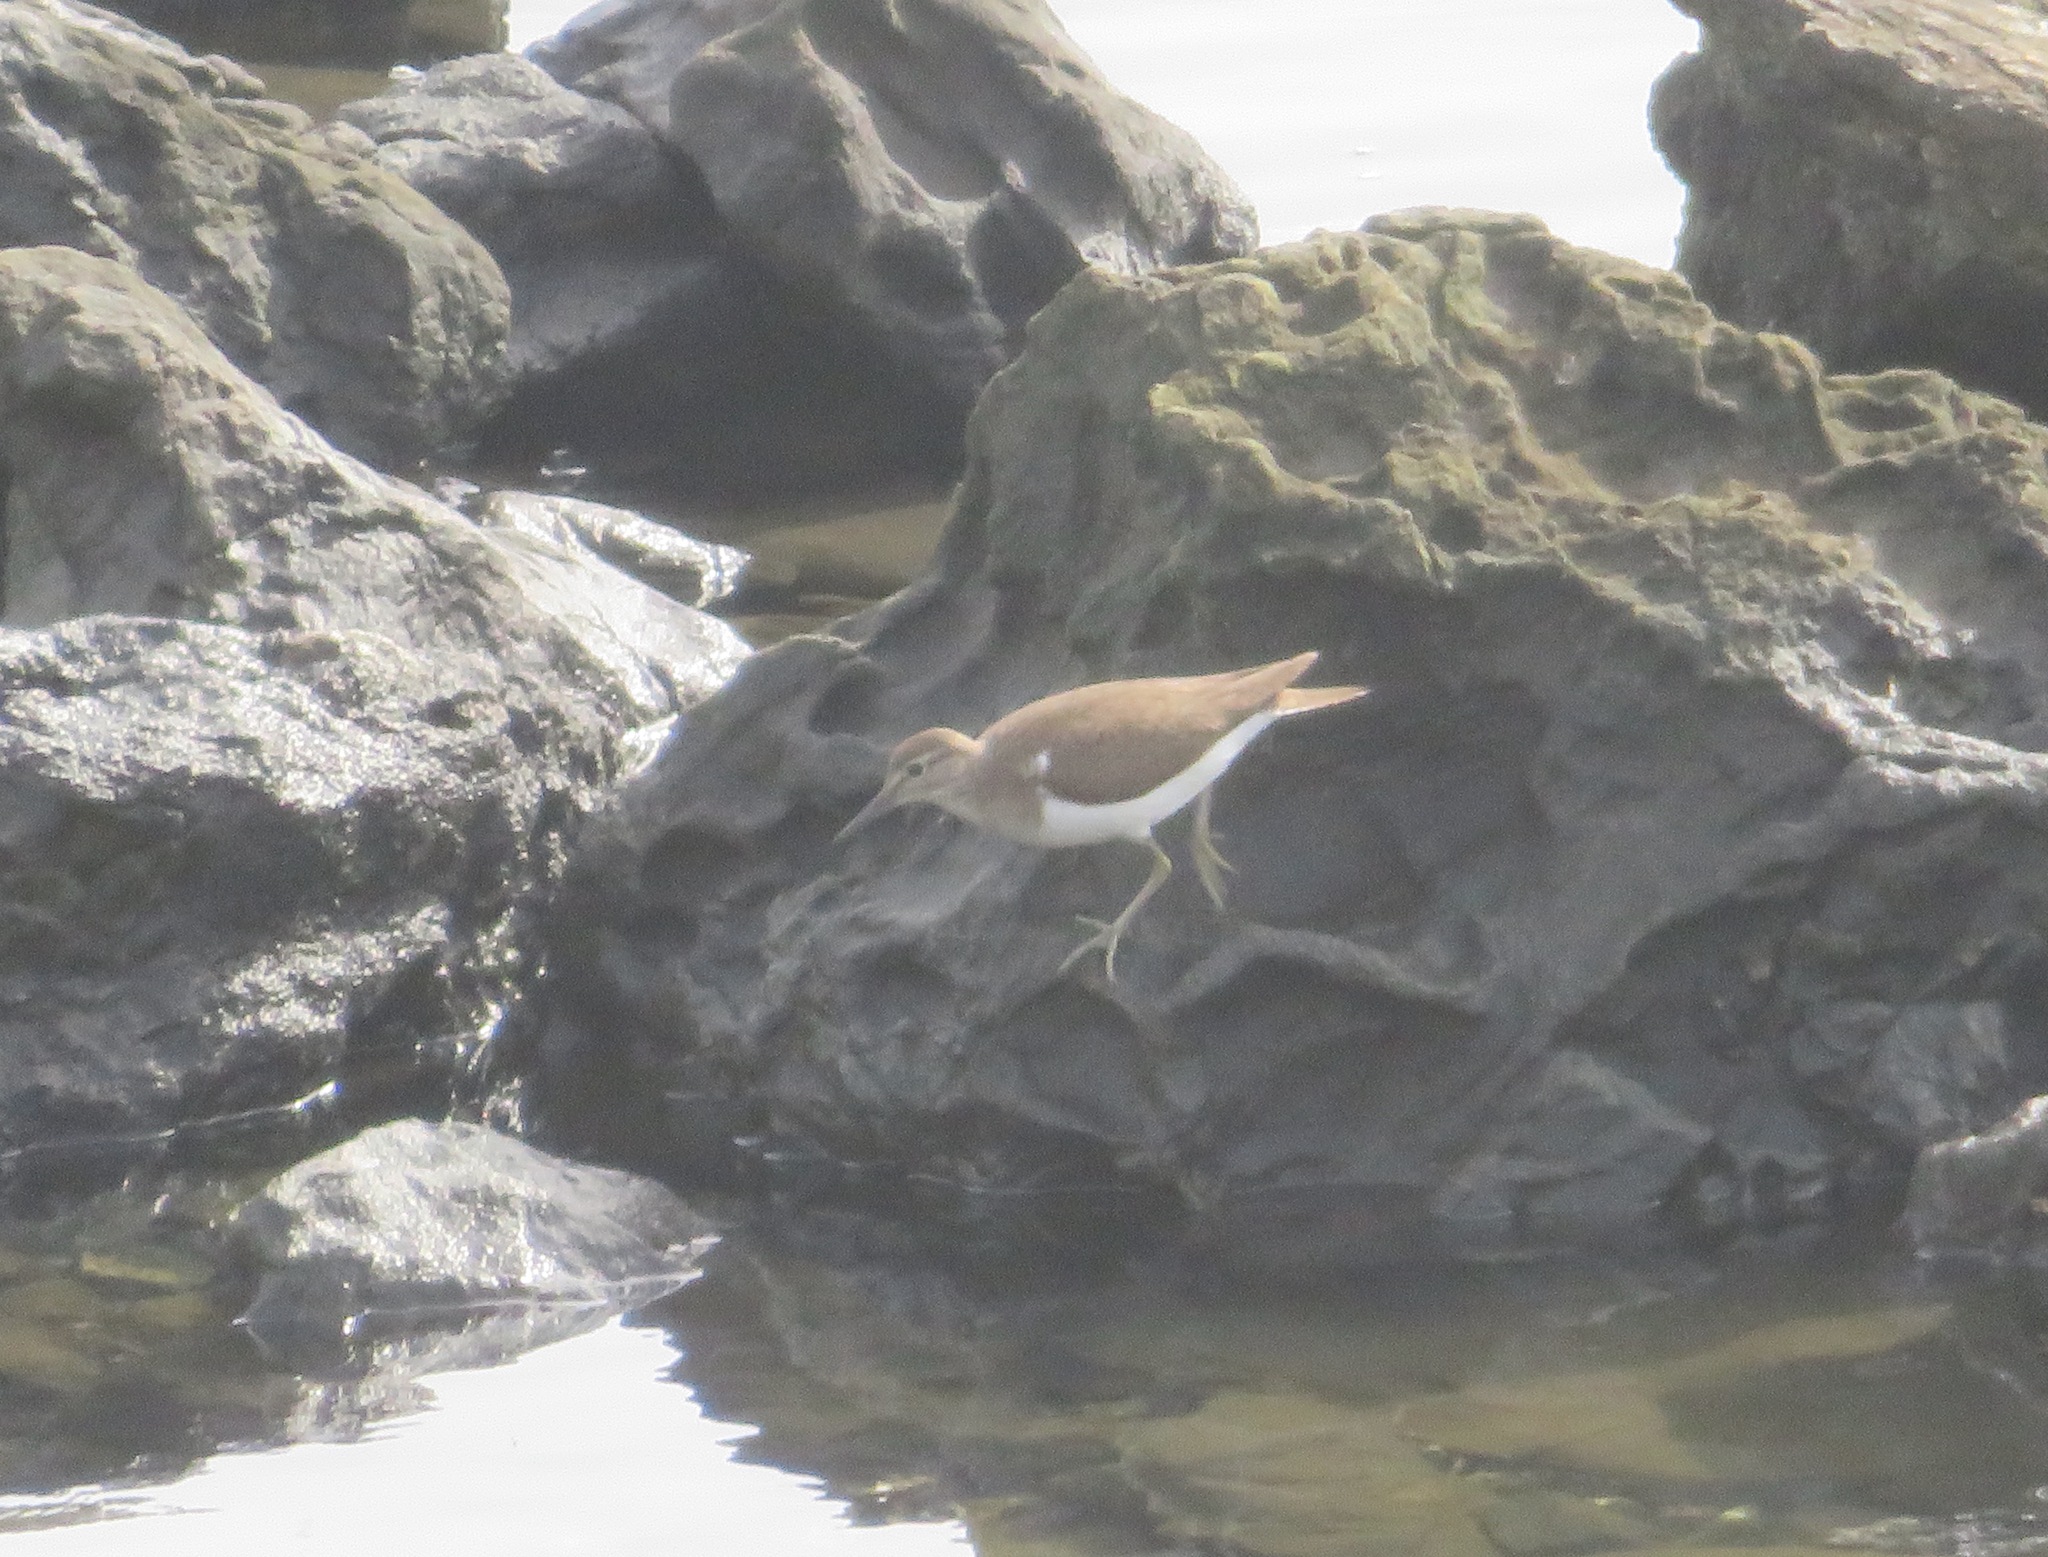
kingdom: Animalia
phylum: Chordata
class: Aves
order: Charadriiformes
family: Scolopacidae
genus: Actitis
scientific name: Actitis hypoleucos
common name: Common sandpiper
